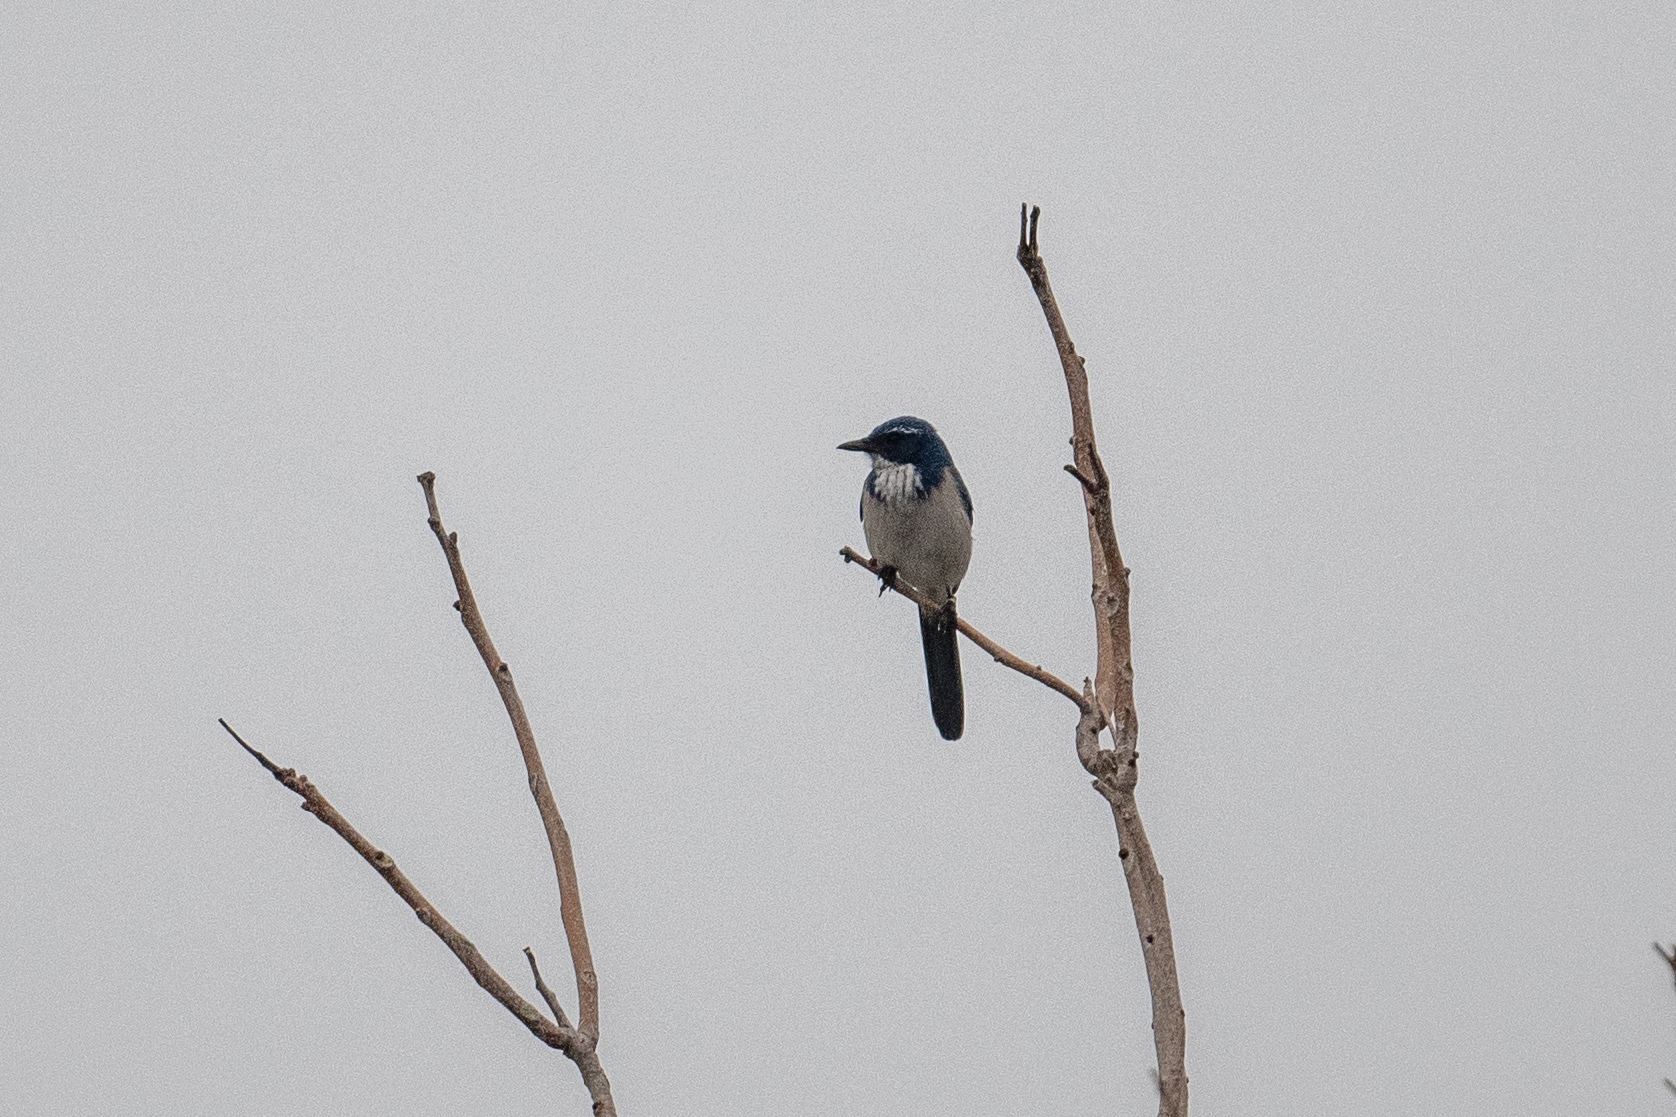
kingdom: Animalia
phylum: Chordata
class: Aves
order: Passeriformes
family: Corvidae
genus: Aphelocoma
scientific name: Aphelocoma californica
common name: California scrub-jay
